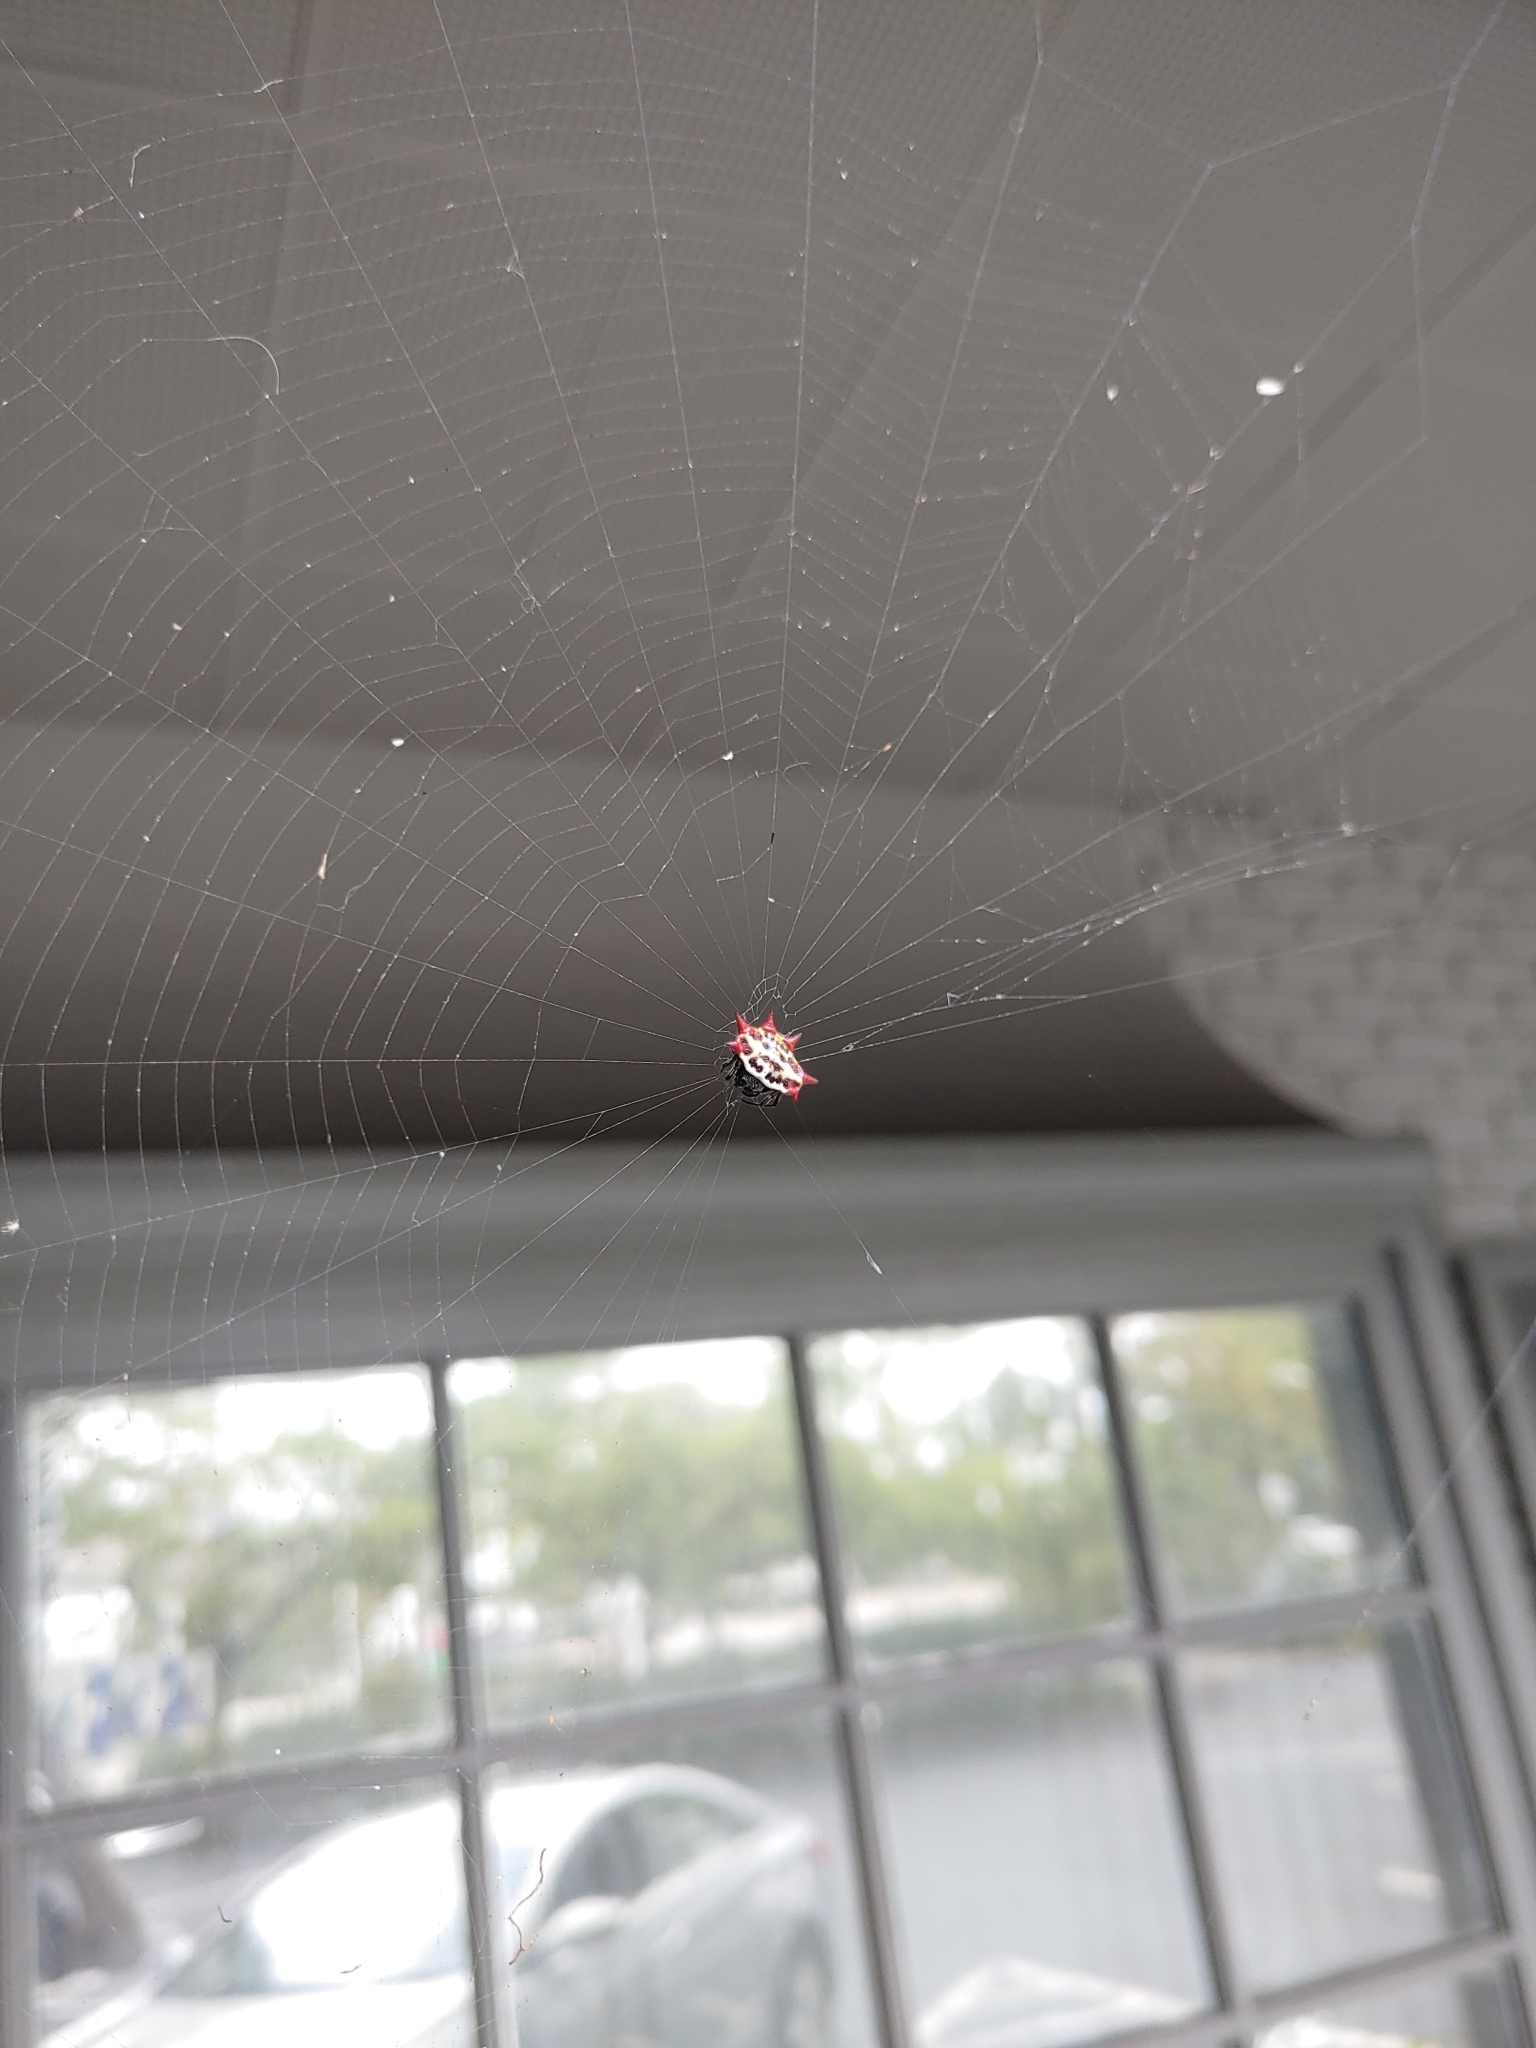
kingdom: Animalia
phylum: Arthropoda
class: Arachnida
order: Araneae
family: Araneidae
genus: Gasteracantha
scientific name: Gasteracantha cancriformis
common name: Orb weavers
